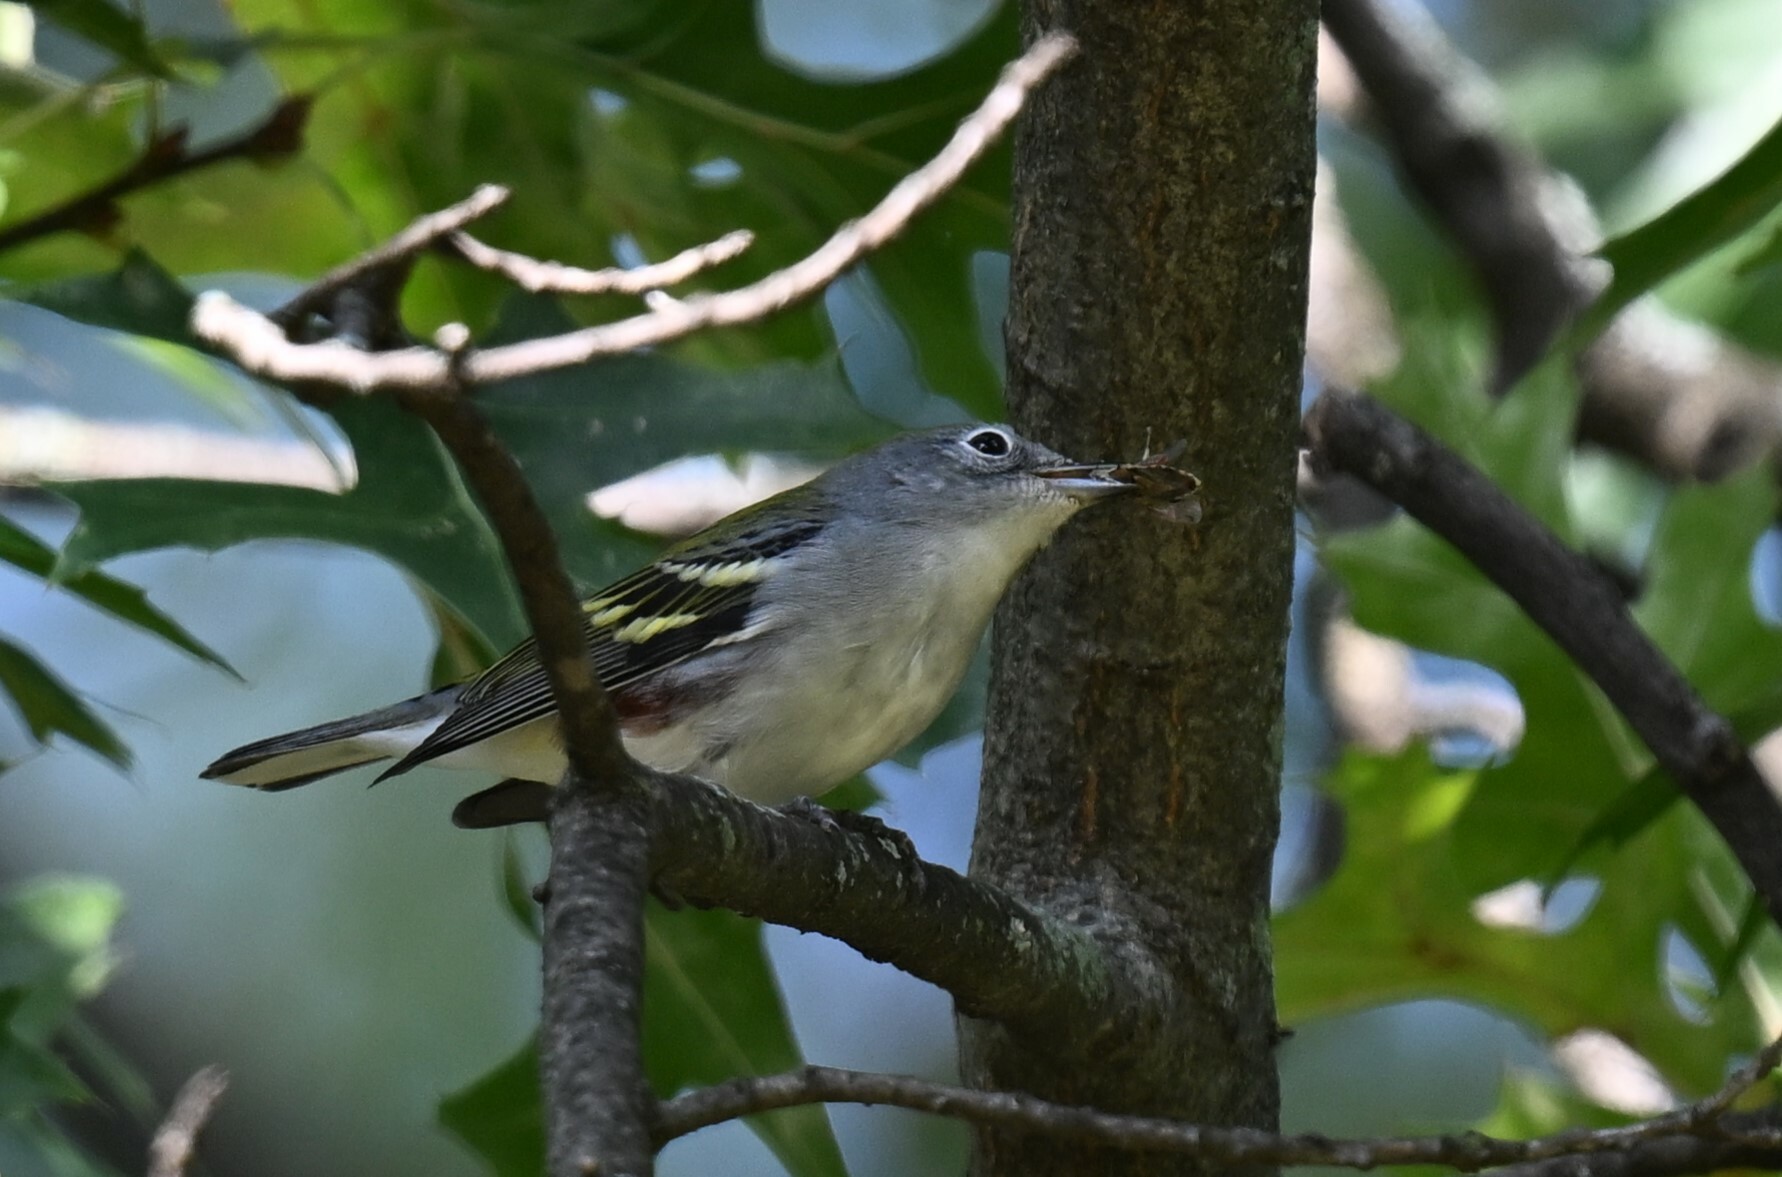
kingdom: Animalia
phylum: Chordata
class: Aves
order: Passeriformes
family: Parulidae
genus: Setophaga
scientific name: Setophaga pensylvanica
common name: Chestnut-sided warbler
